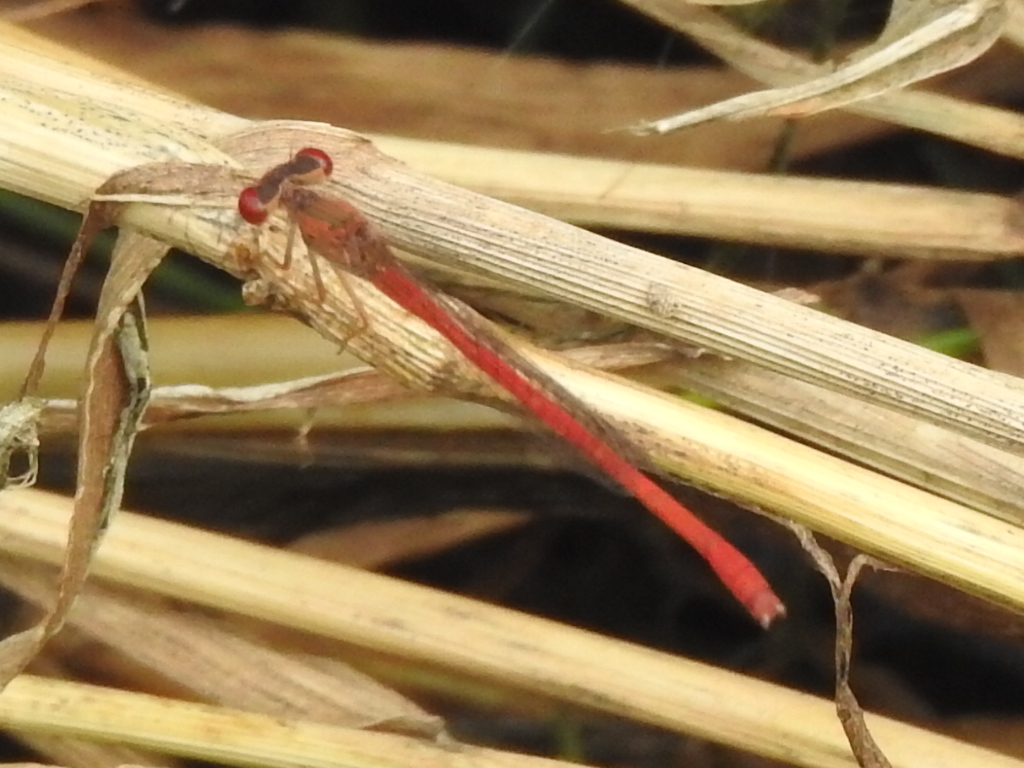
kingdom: Animalia
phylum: Arthropoda
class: Insecta
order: Odonata
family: Coenagrionidae
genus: Telebasis
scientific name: Telebasis salva
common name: Desert firetail
